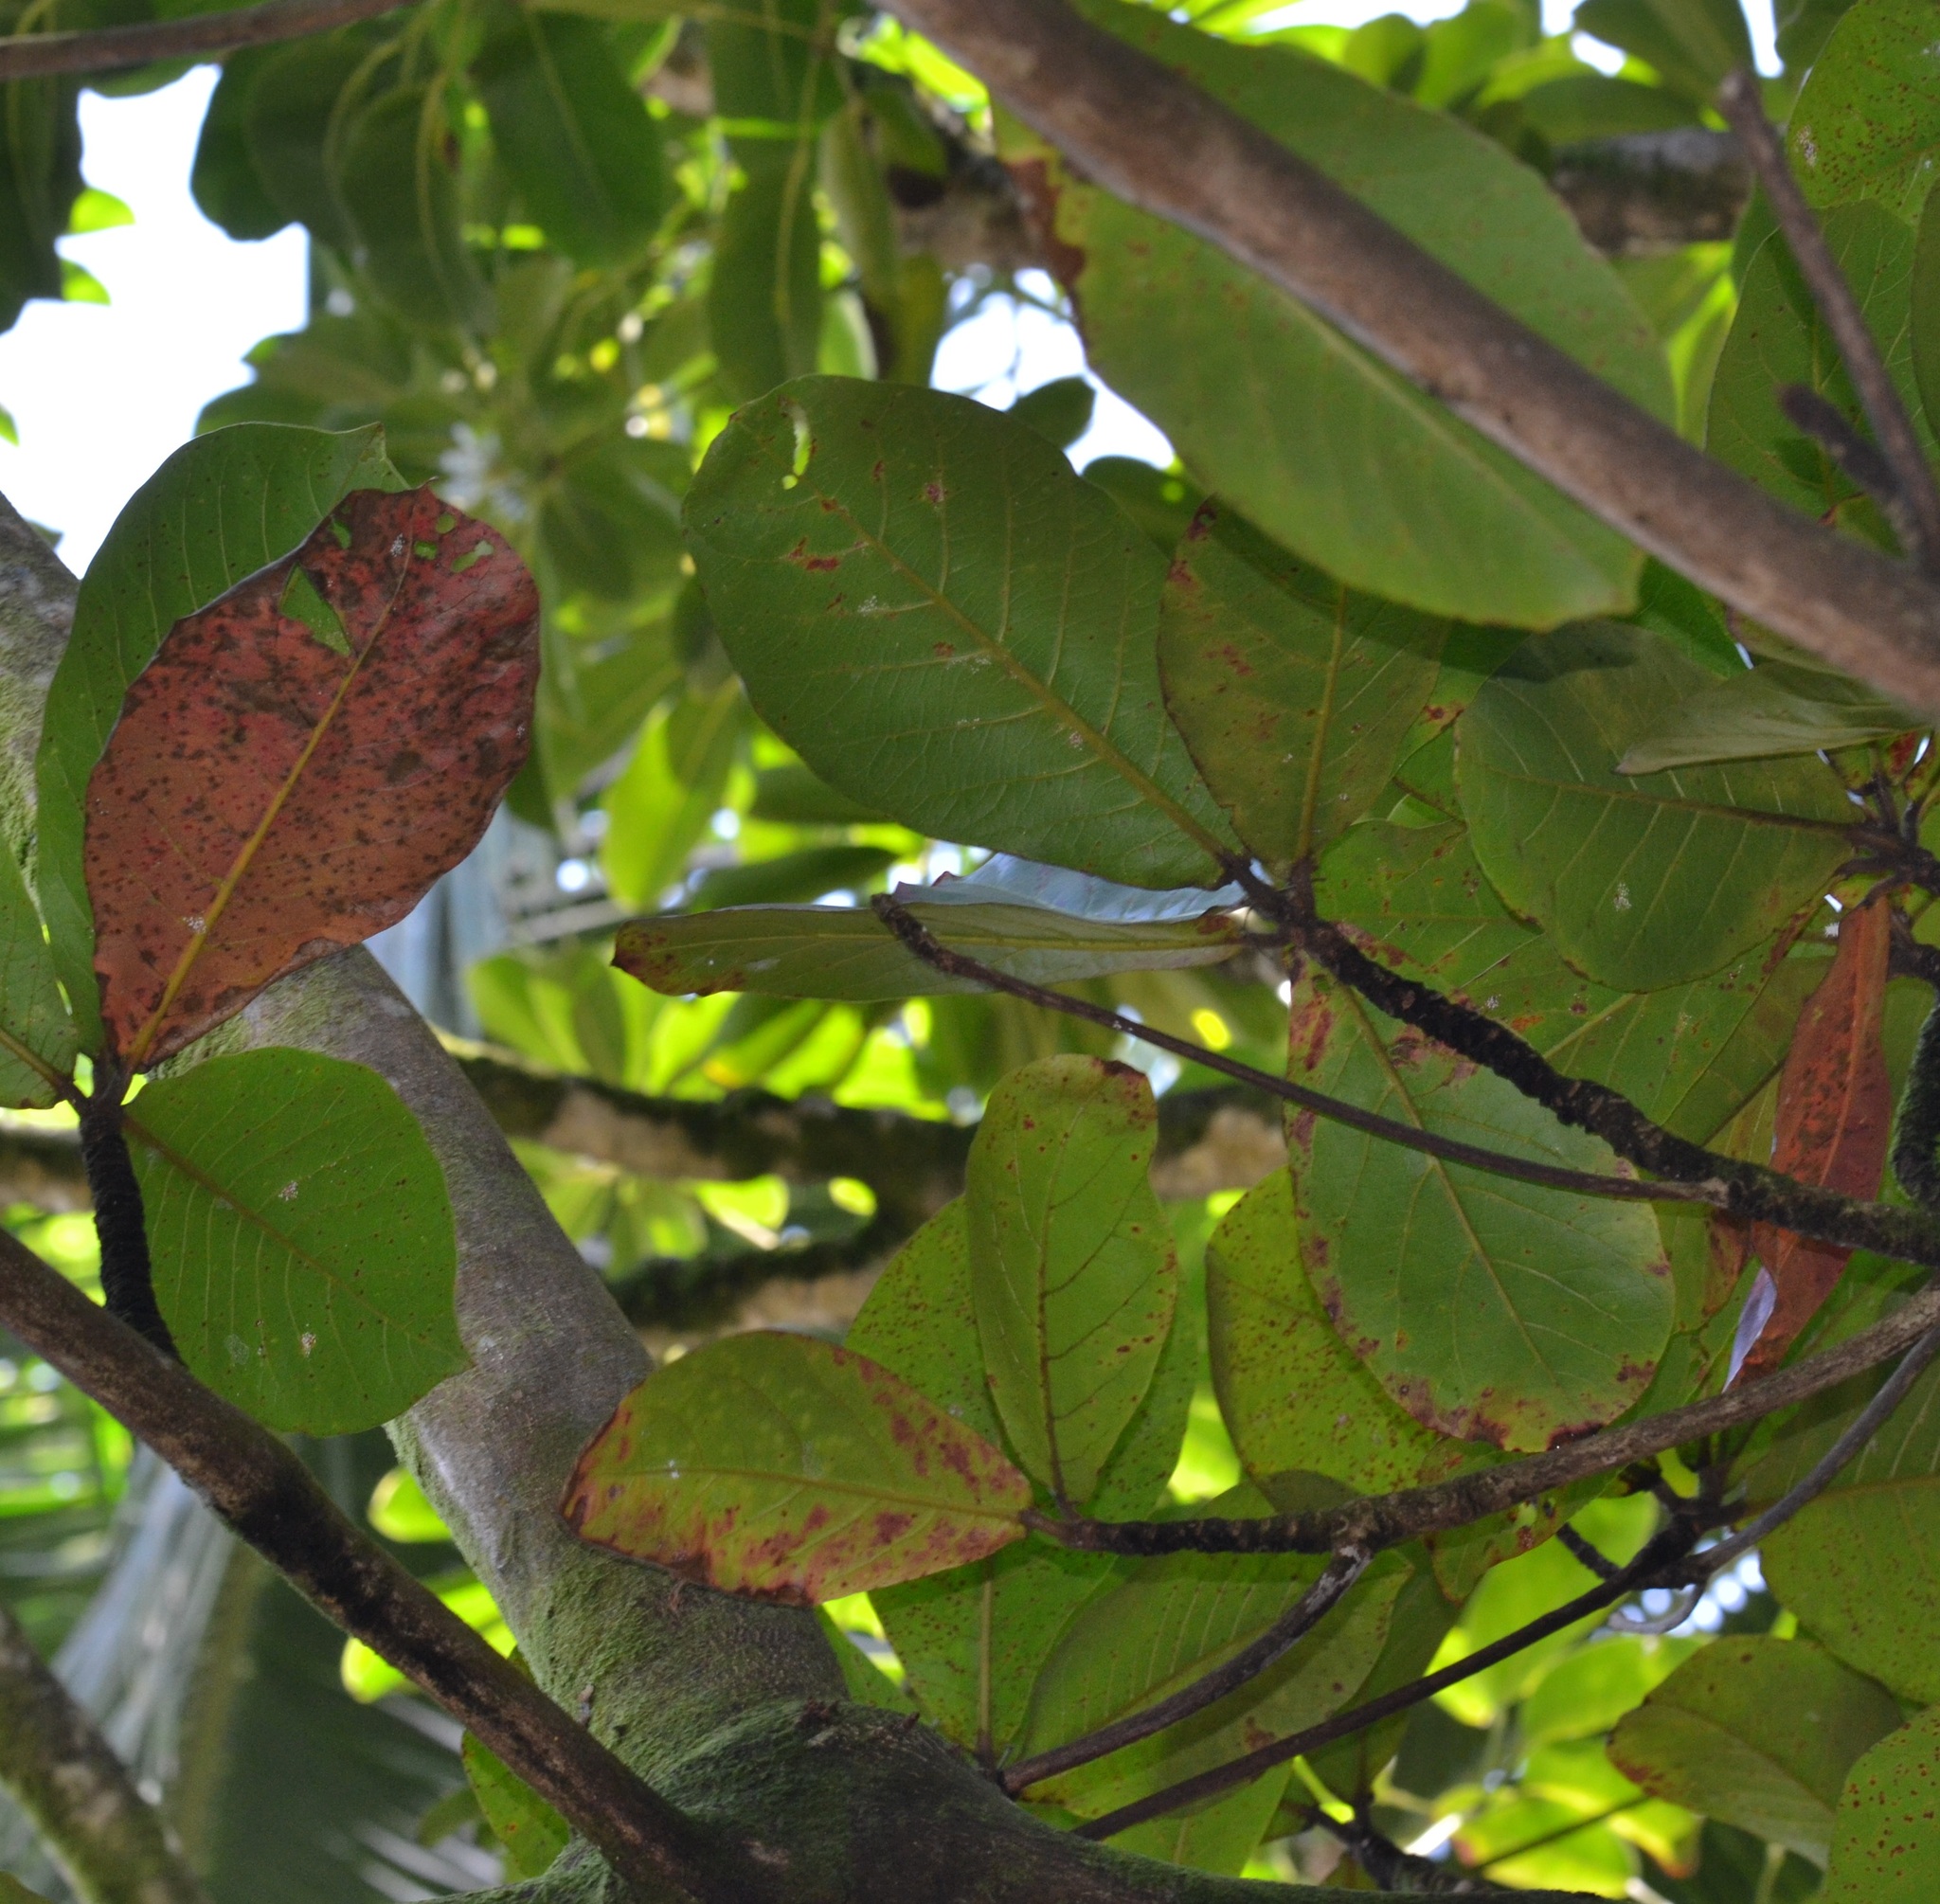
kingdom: Plantae
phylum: Tracheophyta
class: Magnoliopsida
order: Myrtales
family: Combretaceae
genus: Terminalia
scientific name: Terminalia catappa
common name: Tropical almond
